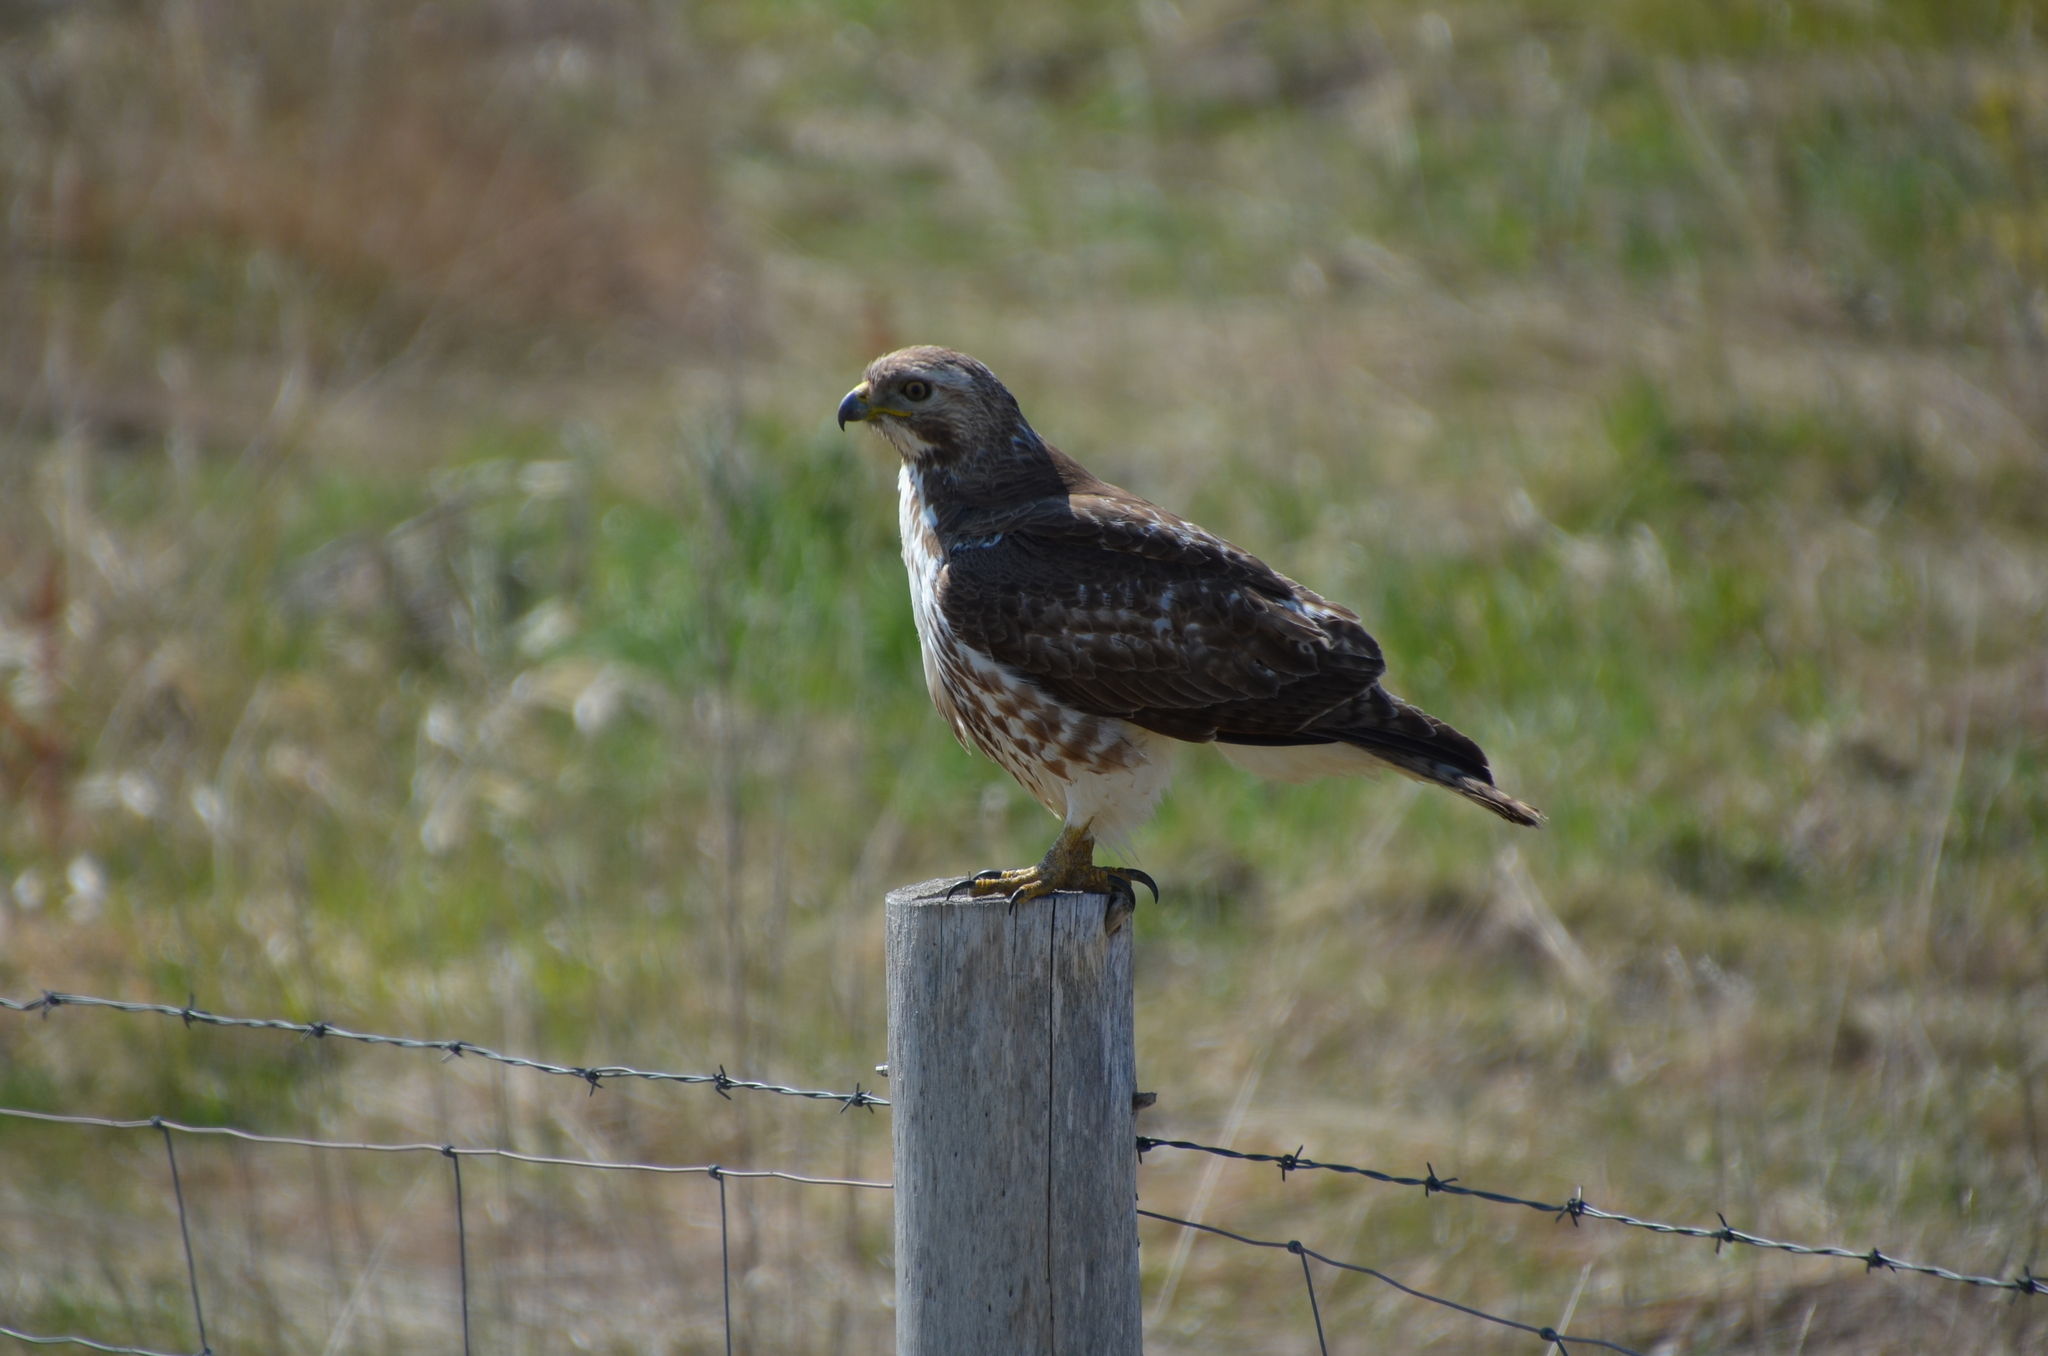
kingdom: Animalia
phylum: Chordata
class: Aves
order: Accipitriformes
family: Accipitridae
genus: Buteo
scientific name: Buteo jamaicensis
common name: Red-tailed hawk
